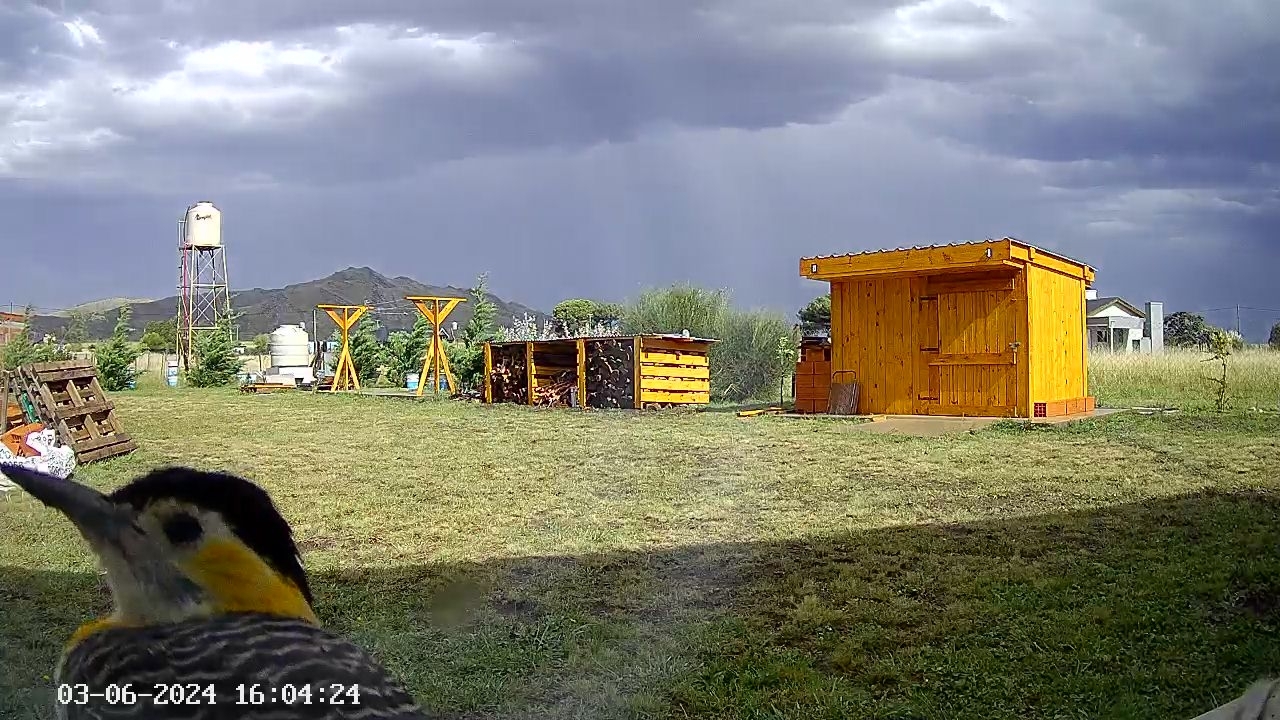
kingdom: Animalia
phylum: Chordata
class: Aves
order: Piciformes
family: Picidae
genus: Colaptes
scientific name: Colaptes campestris
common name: Campo flicker
